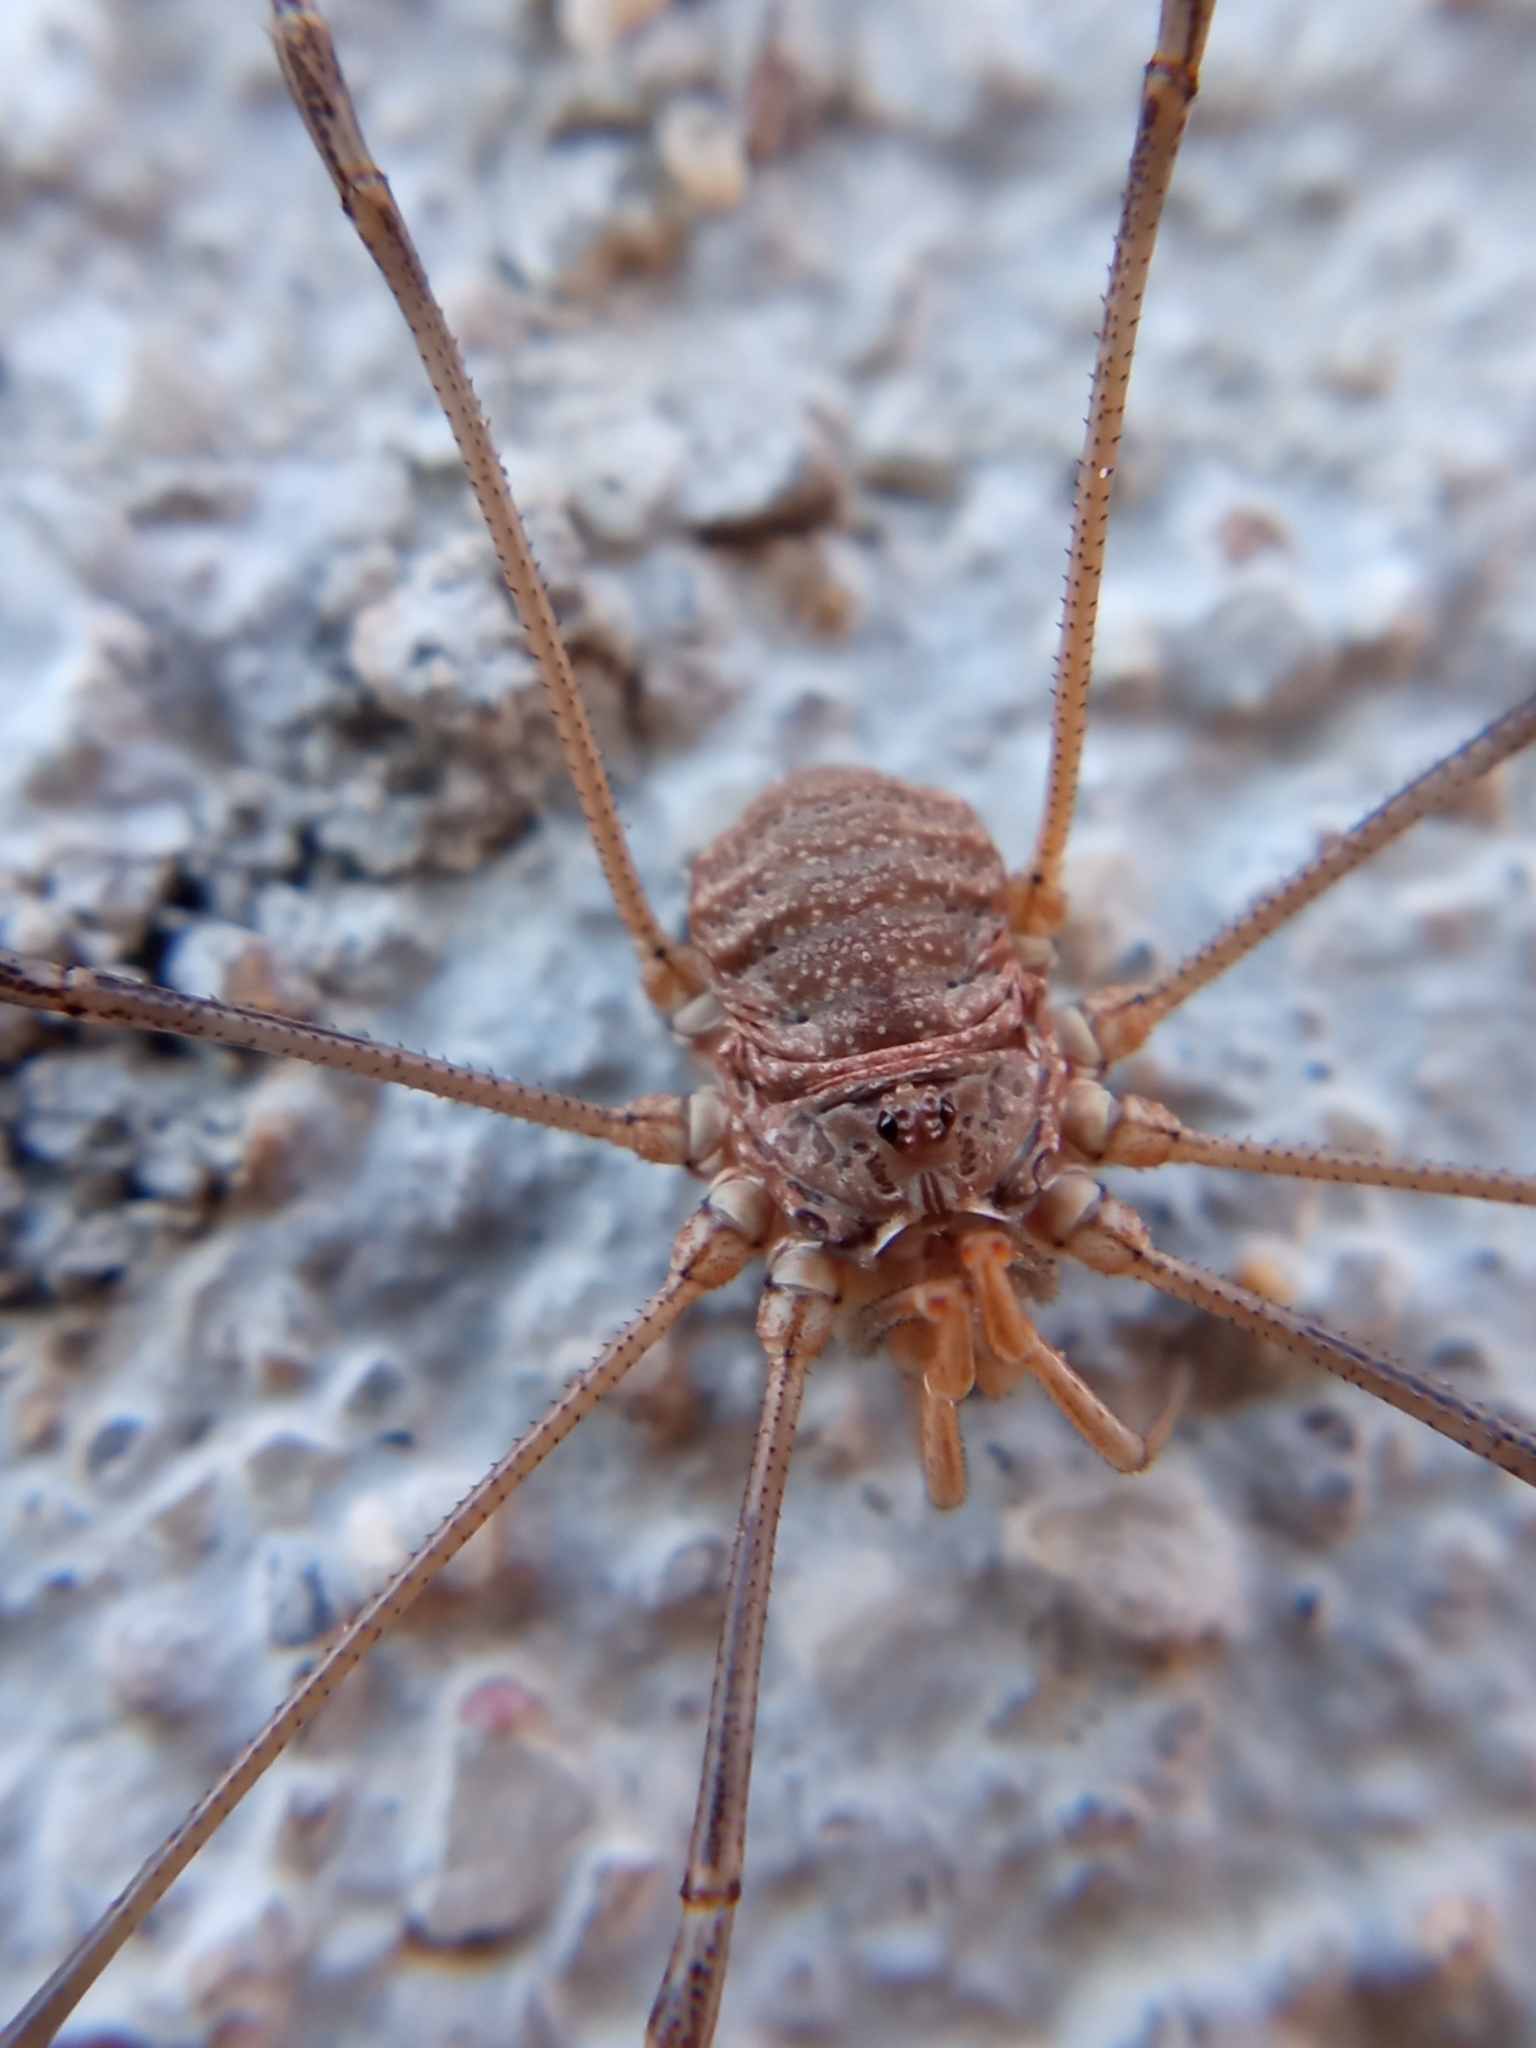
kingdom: Animalia
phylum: Arthropoda
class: Arachnida
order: Opiliones
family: Phalangiidae
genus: Phalangium
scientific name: Phalangium opilio
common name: Daddy longleg
